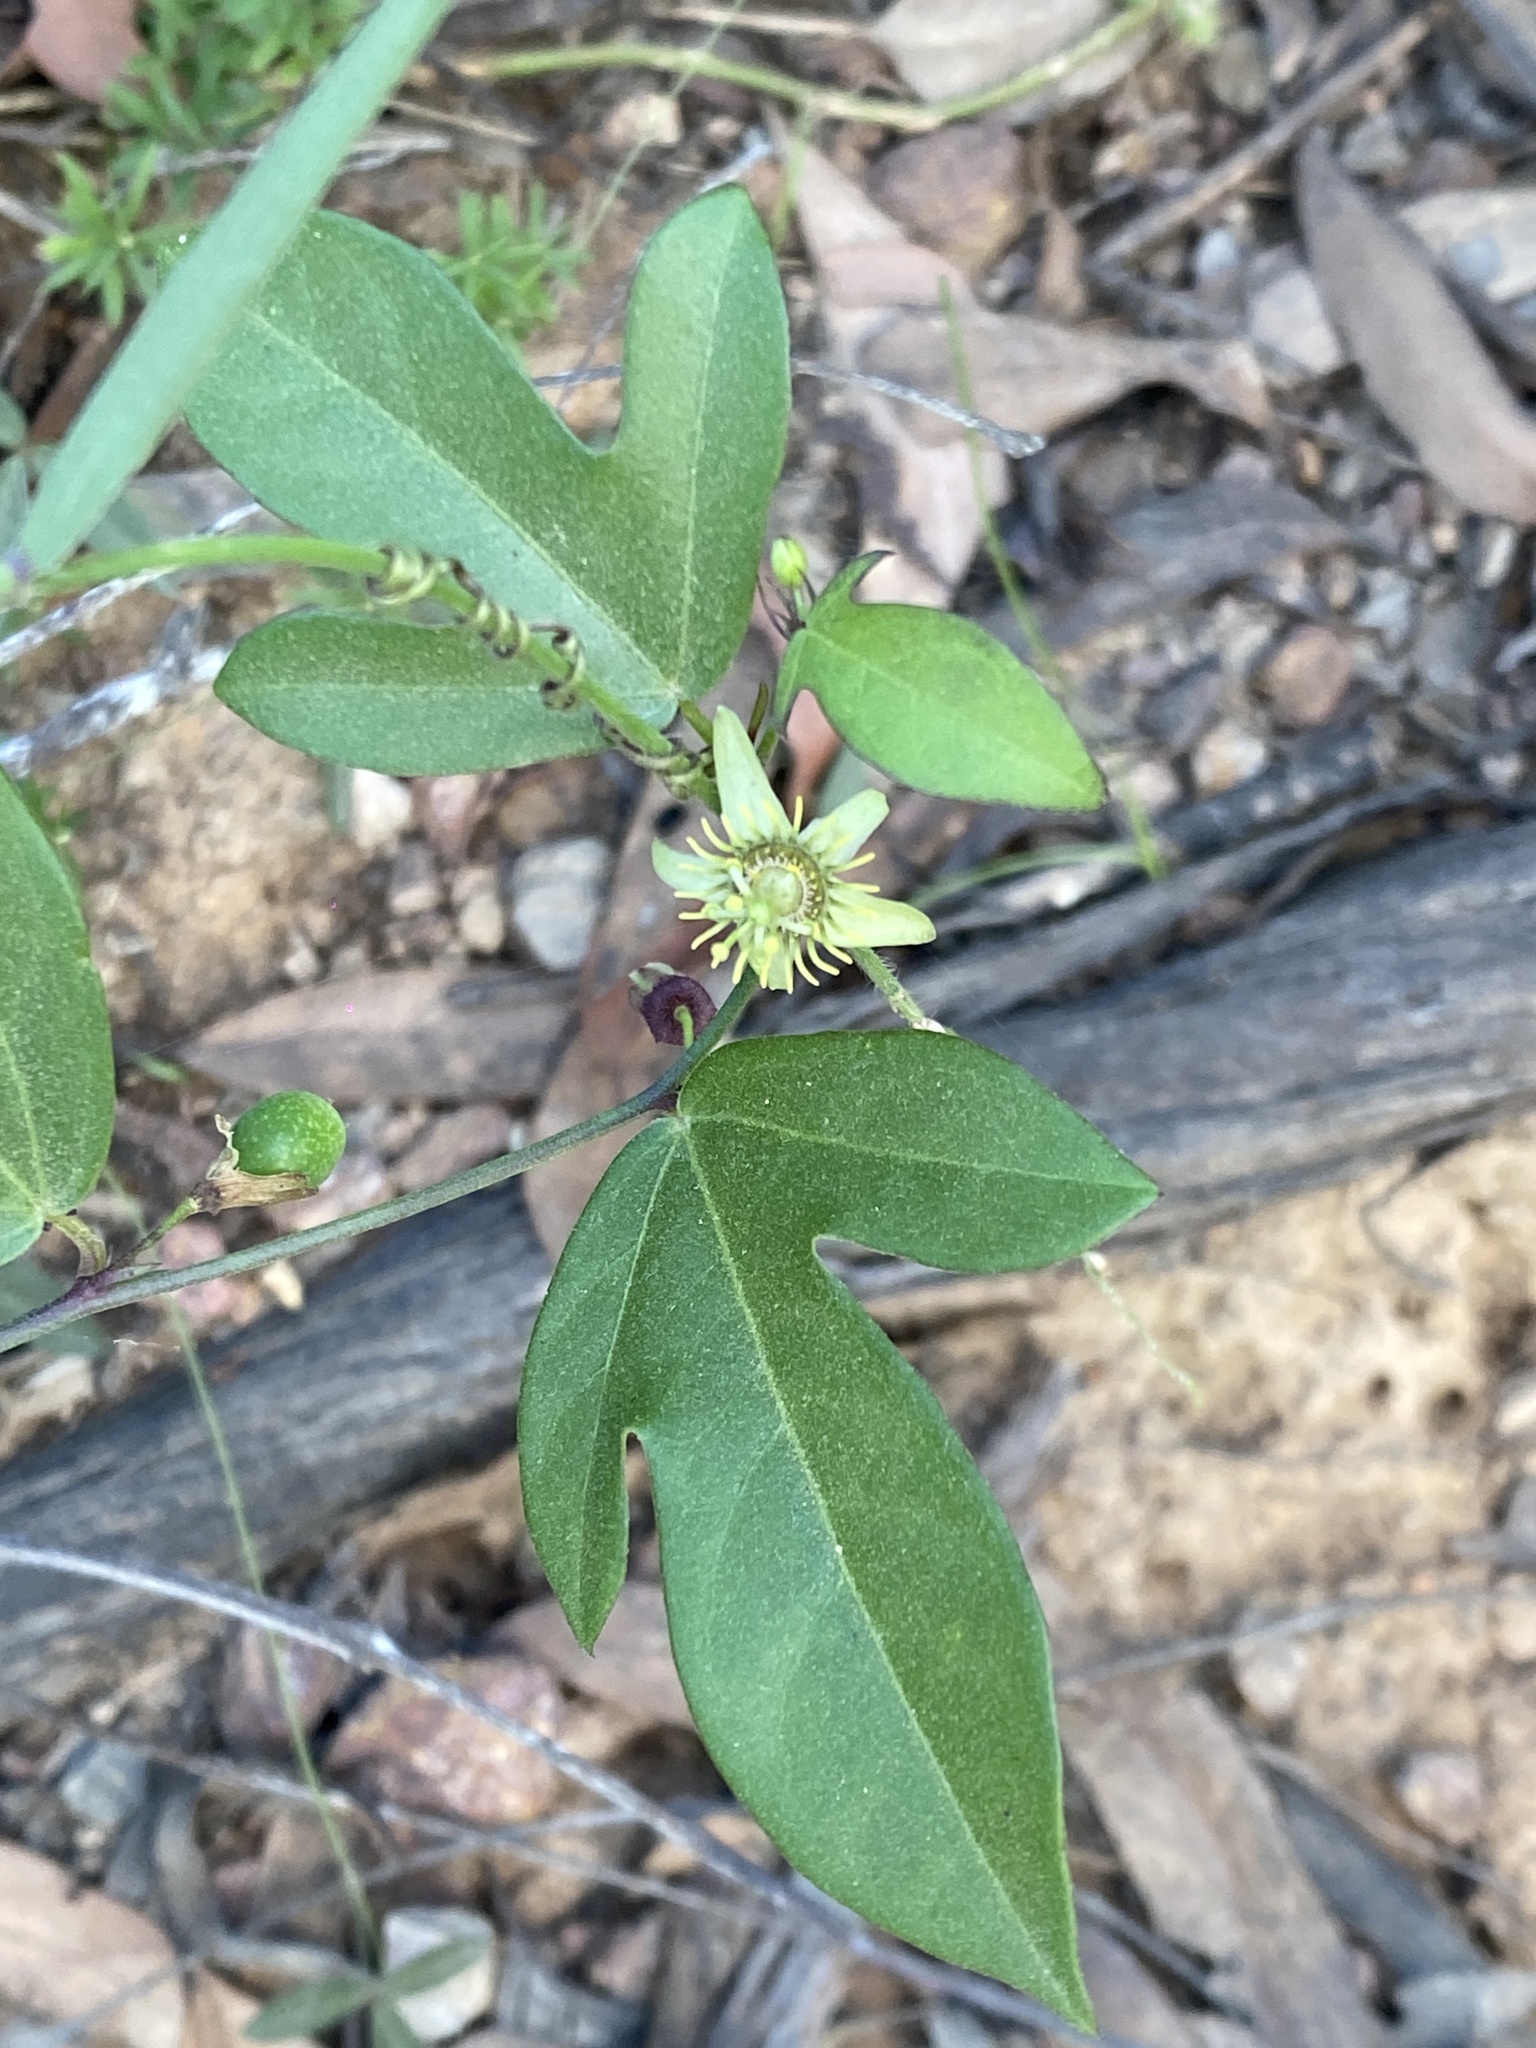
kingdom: Plantae
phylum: Tracheophyta
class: Magnoliopsida
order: Malpighiales
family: Passifloraceae
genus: Passiflora
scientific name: Passiflora pallida
